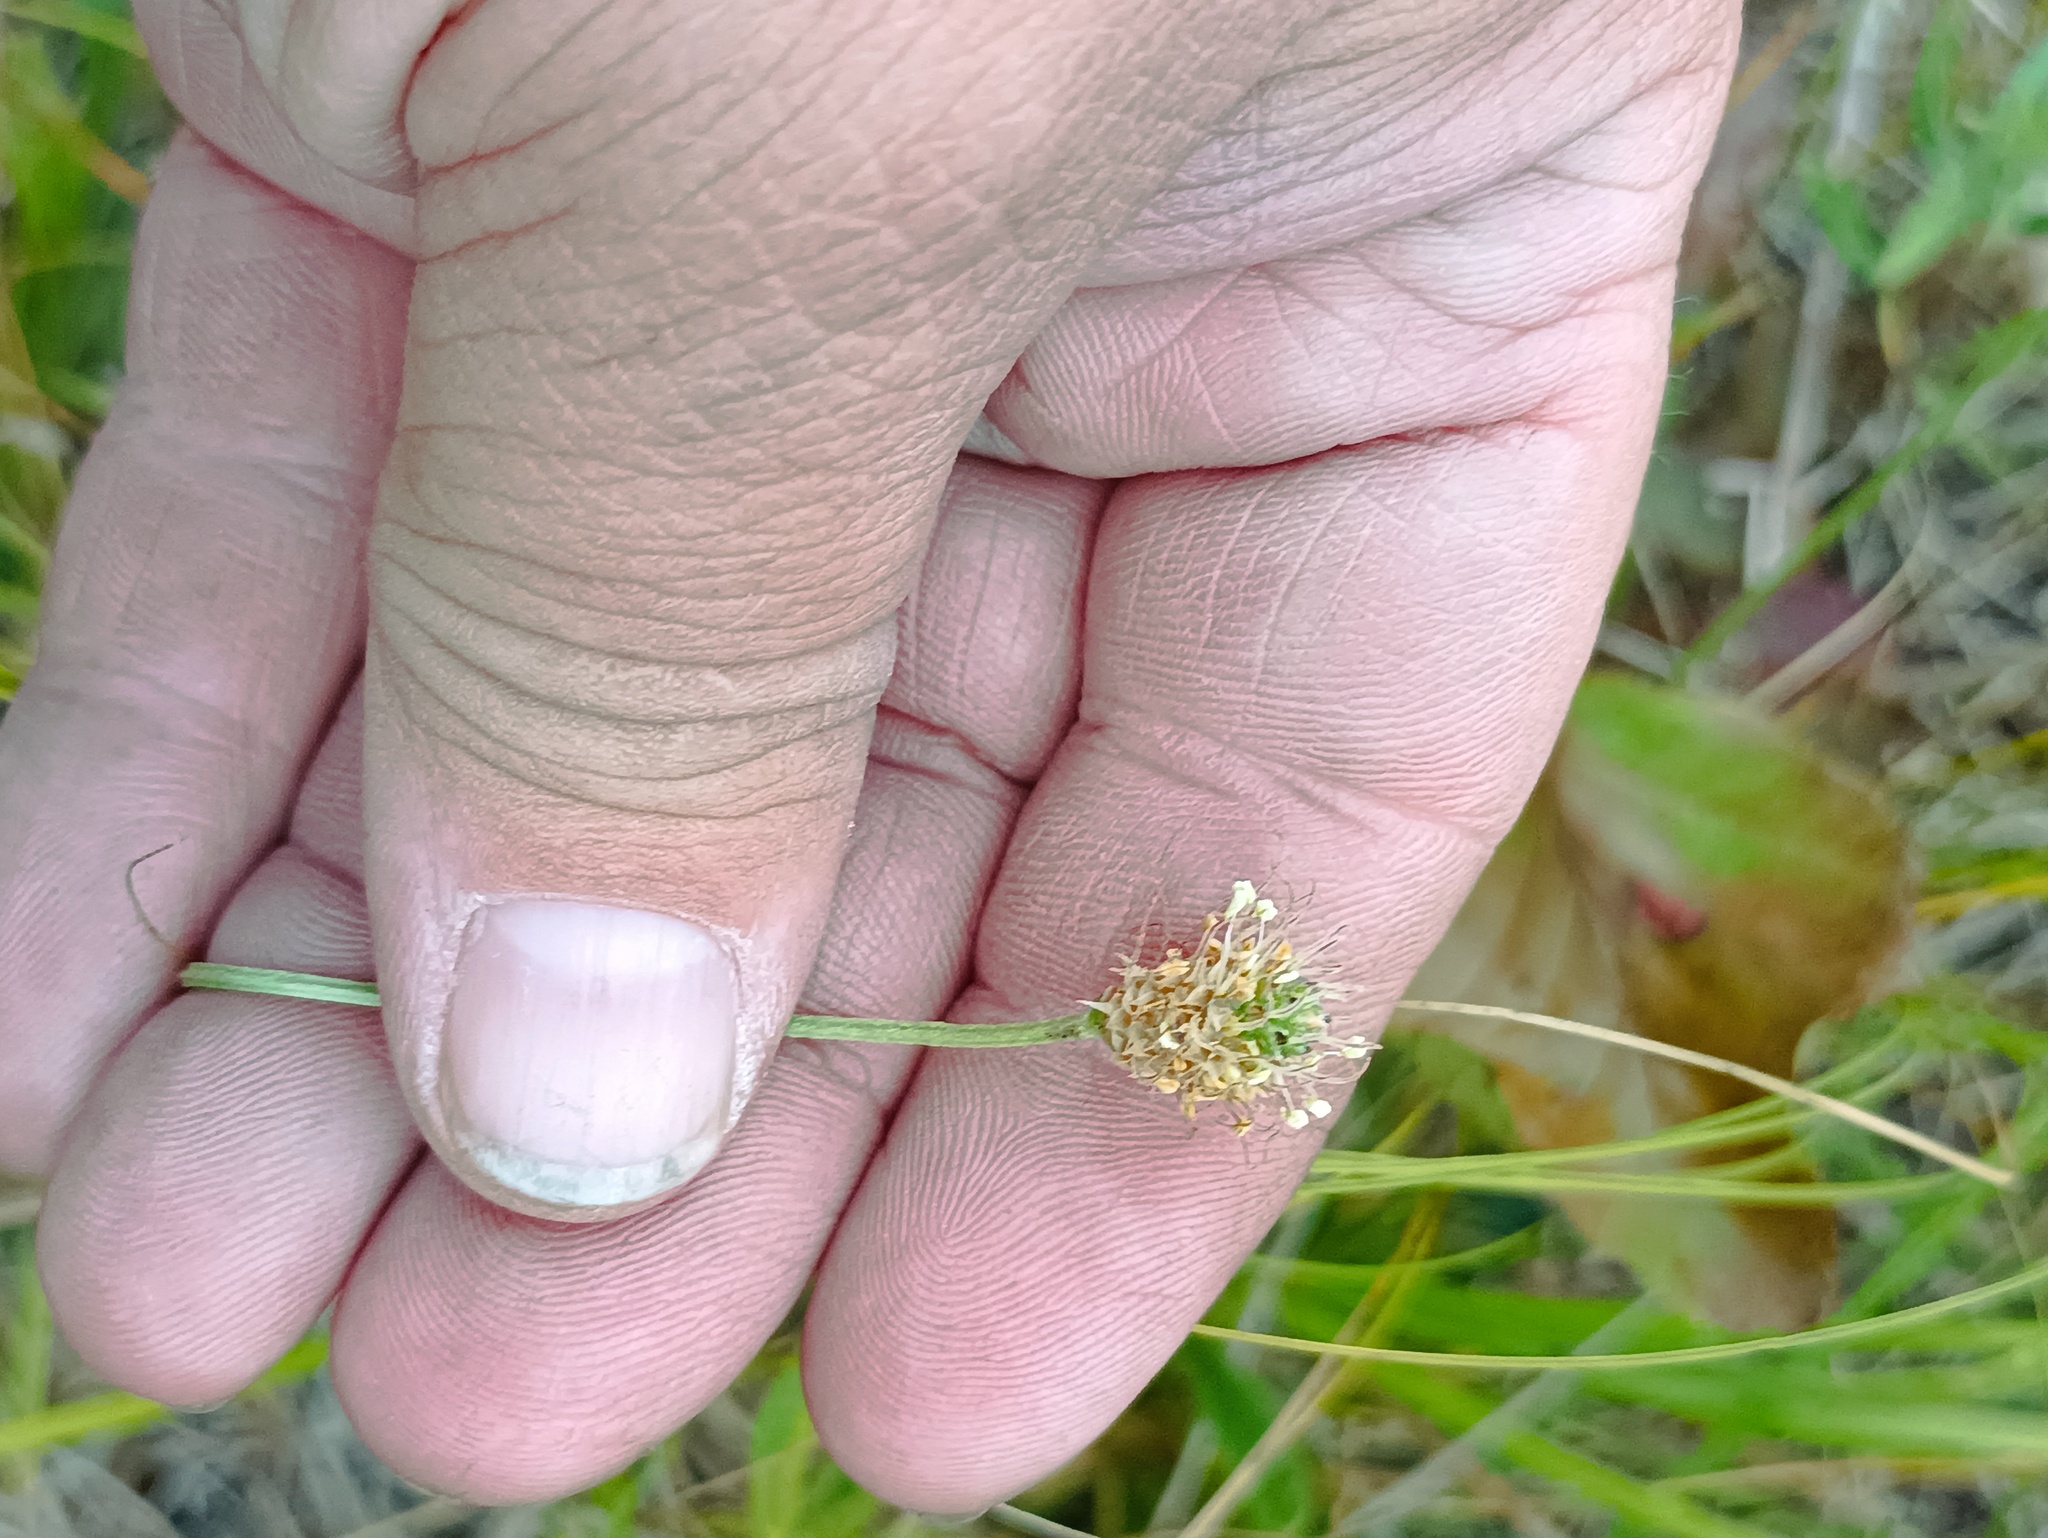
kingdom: Plantae
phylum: Tracheophyta
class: Magnoliopsida
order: Lamiales
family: Plantaginaceae
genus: Plantago
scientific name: Plantago lanceolata
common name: Ribwort plantain
